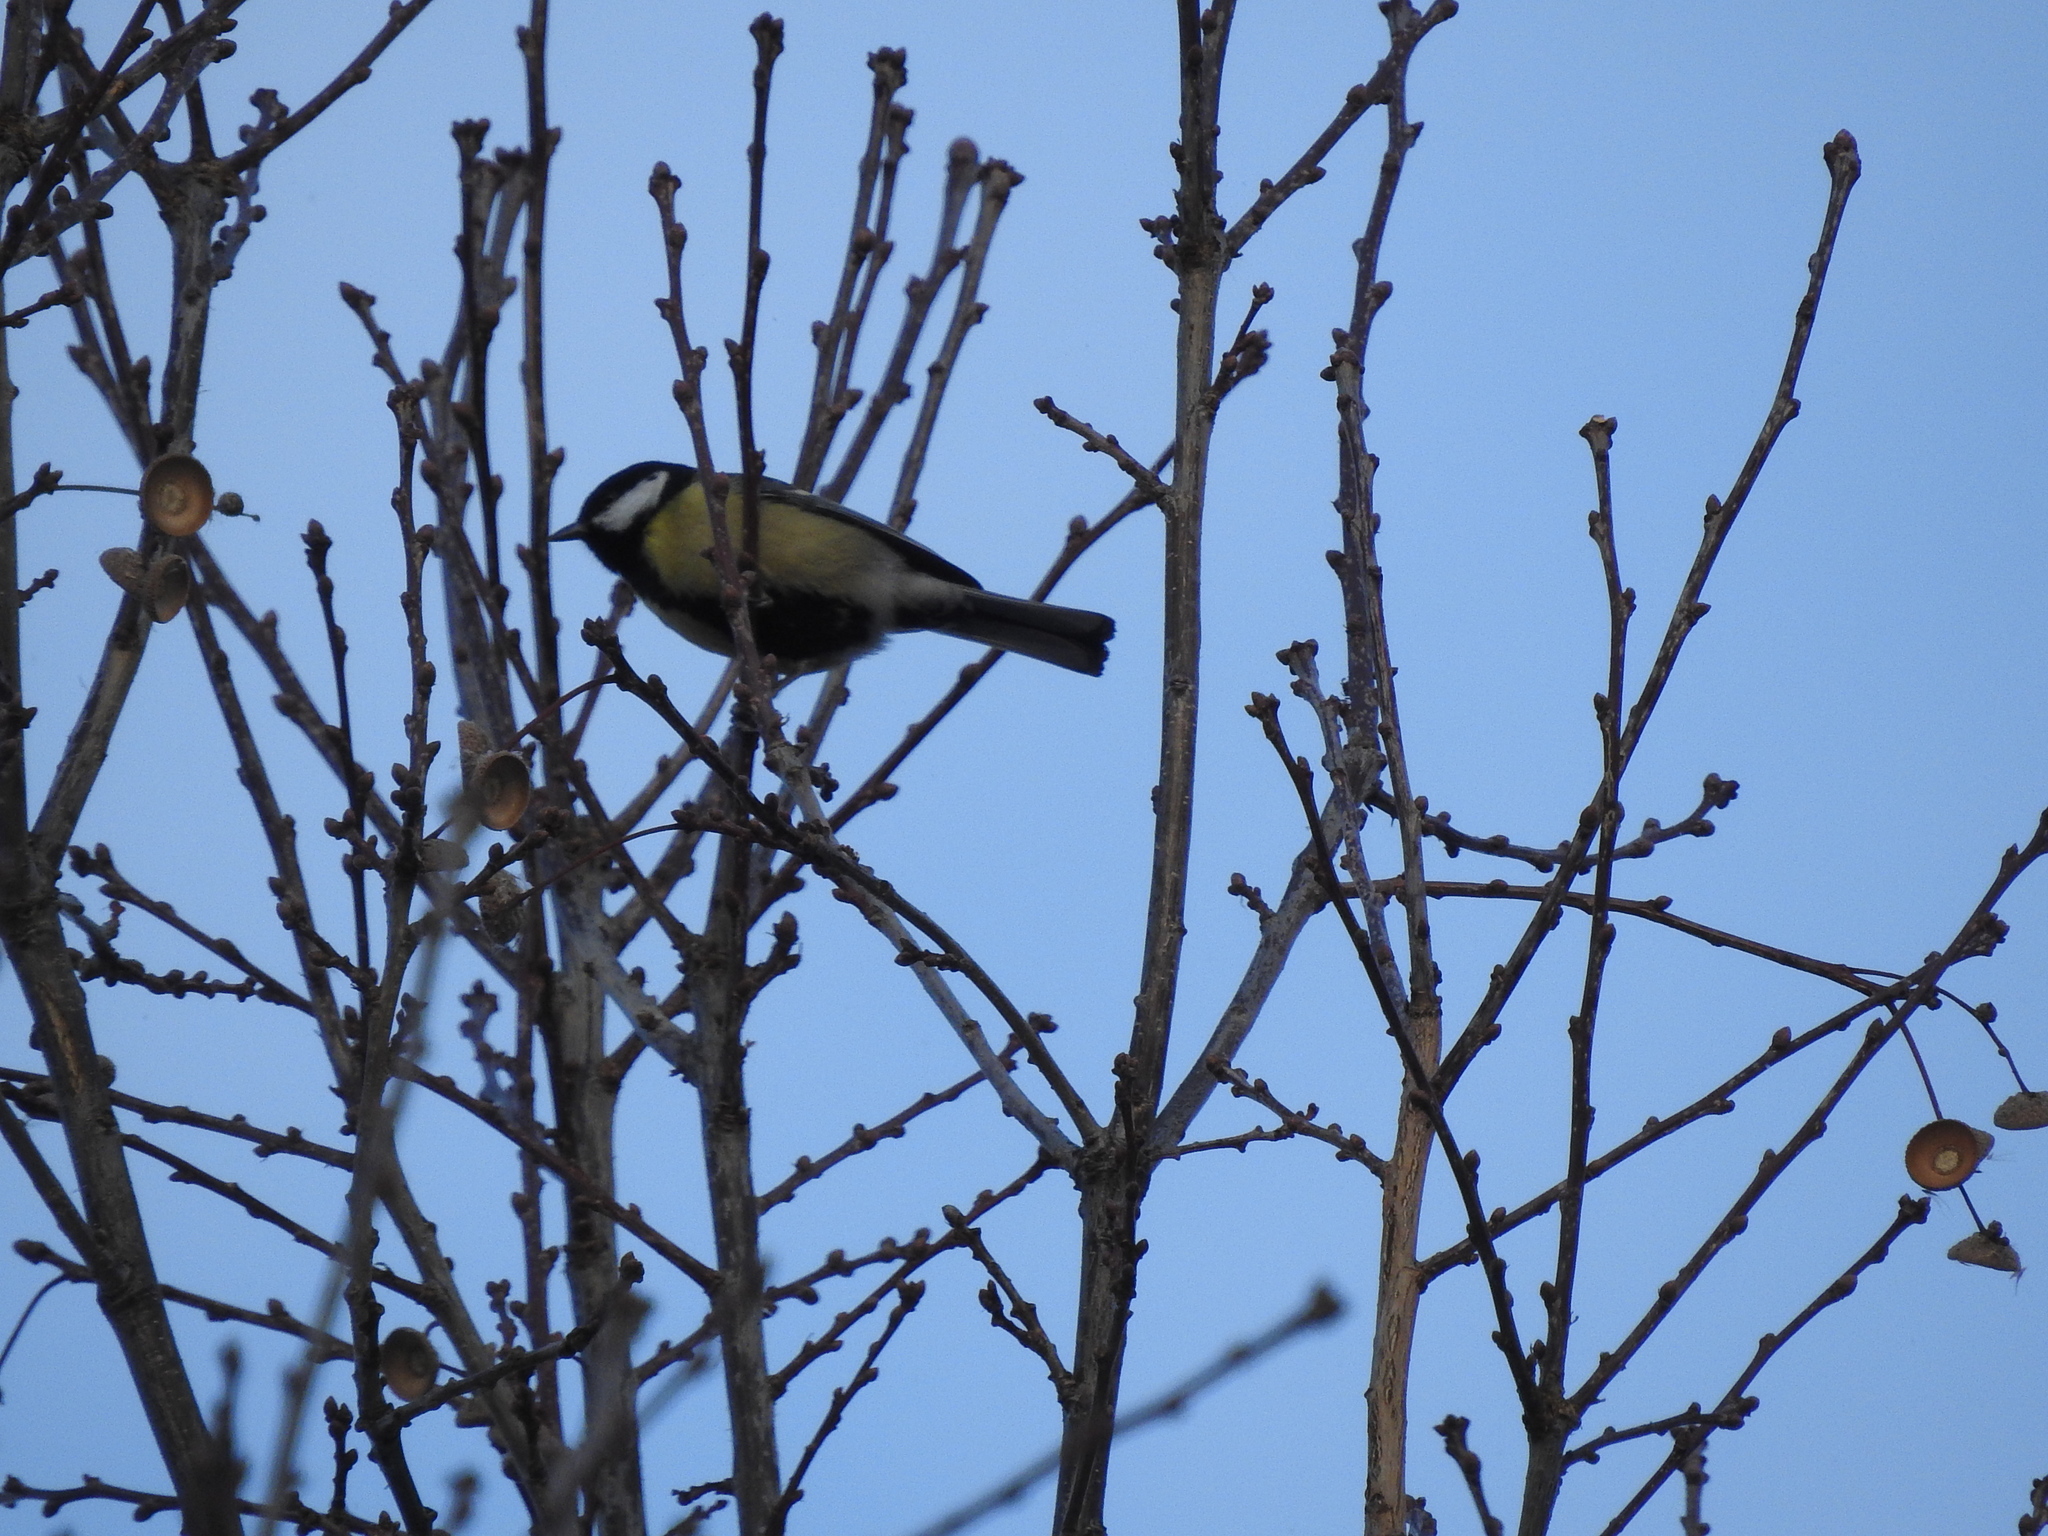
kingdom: Animalia
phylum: Chordata
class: Aves
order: Passeriformes
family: Paridae
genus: Parus
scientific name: Parus major
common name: Great tit
